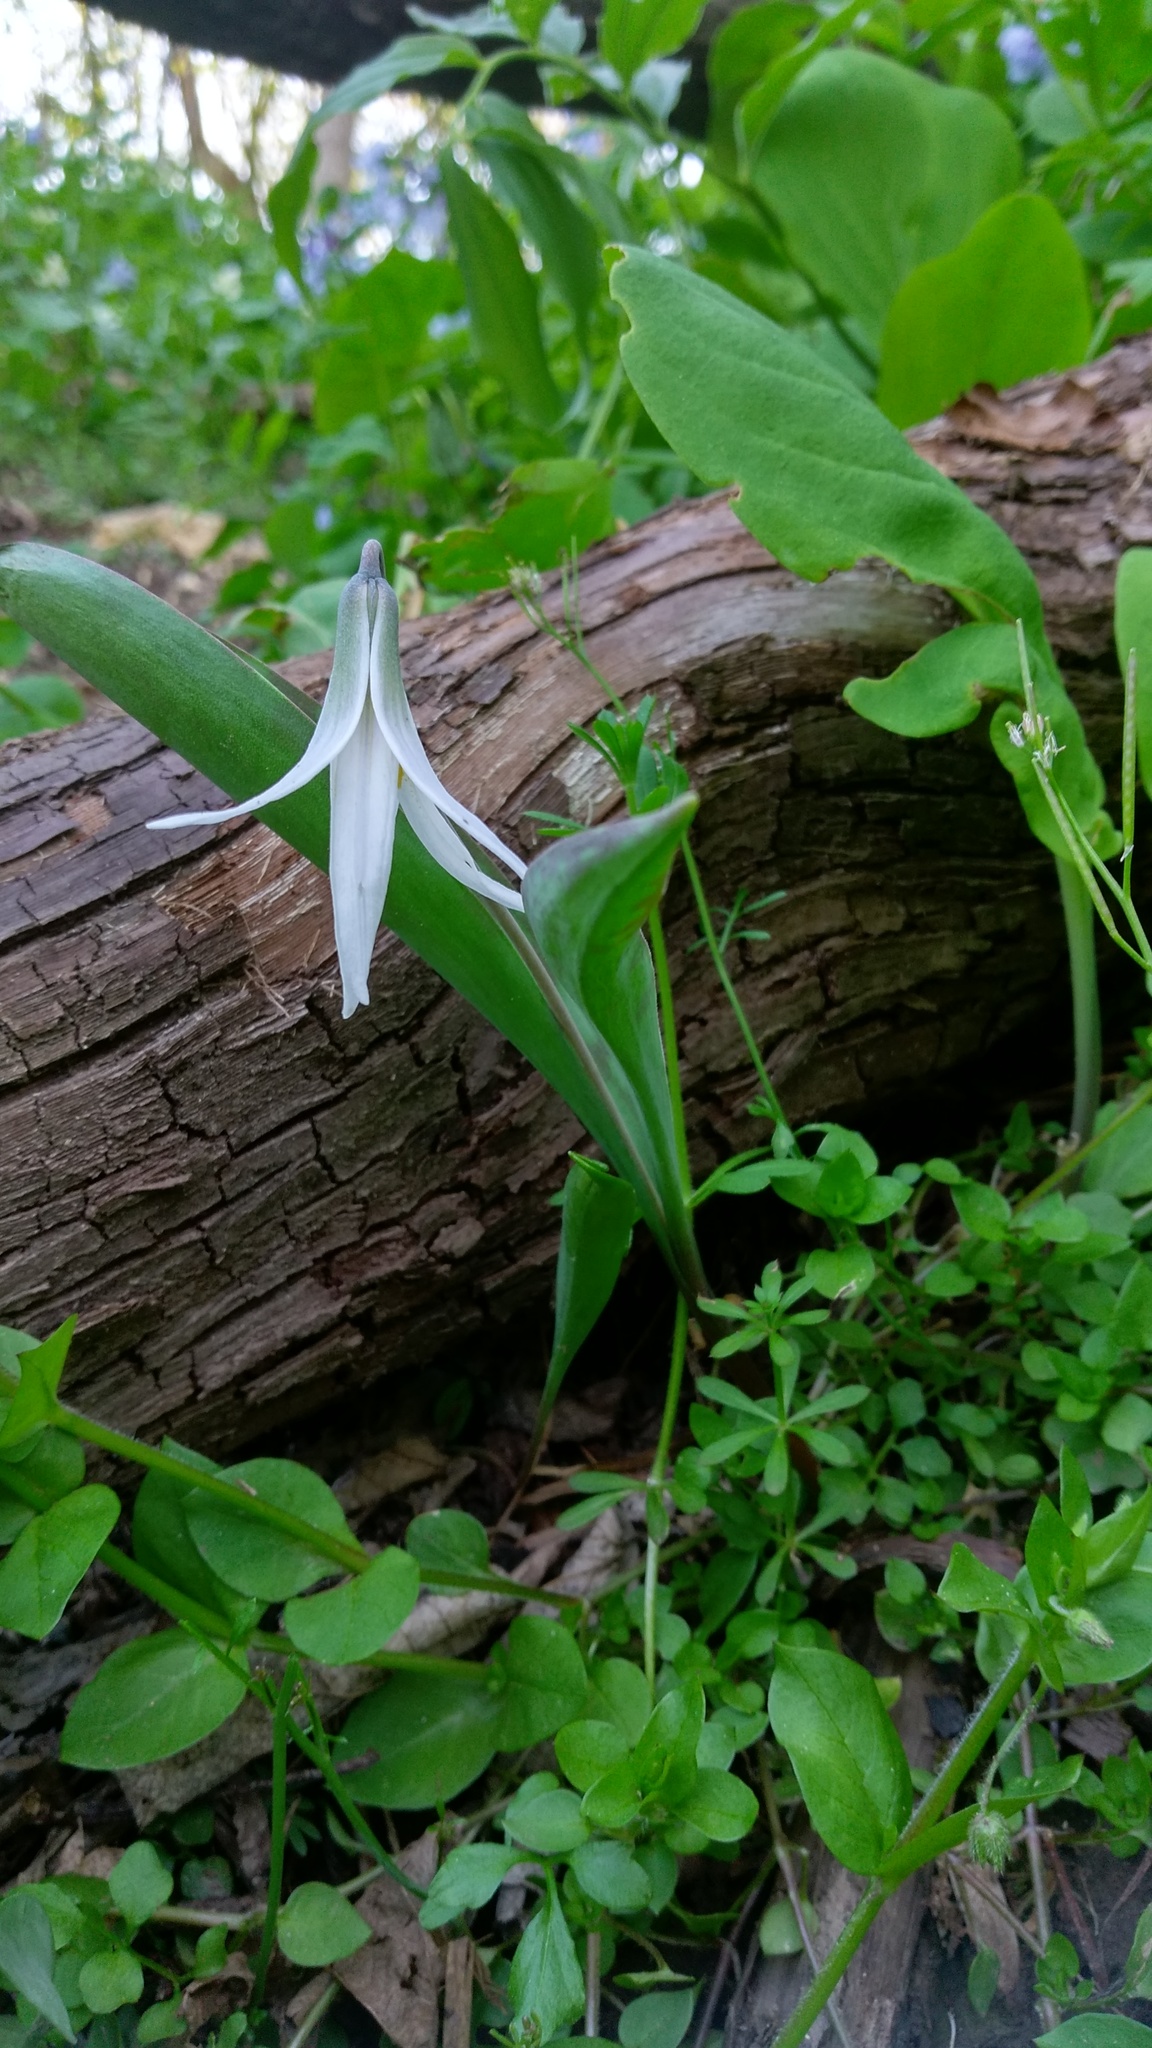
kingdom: Plantae
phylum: Tracheophyta
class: Liliopsida
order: Liliales
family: Liliaceae
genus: Erythronium
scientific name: Erythronium albidum
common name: White trout-lily
